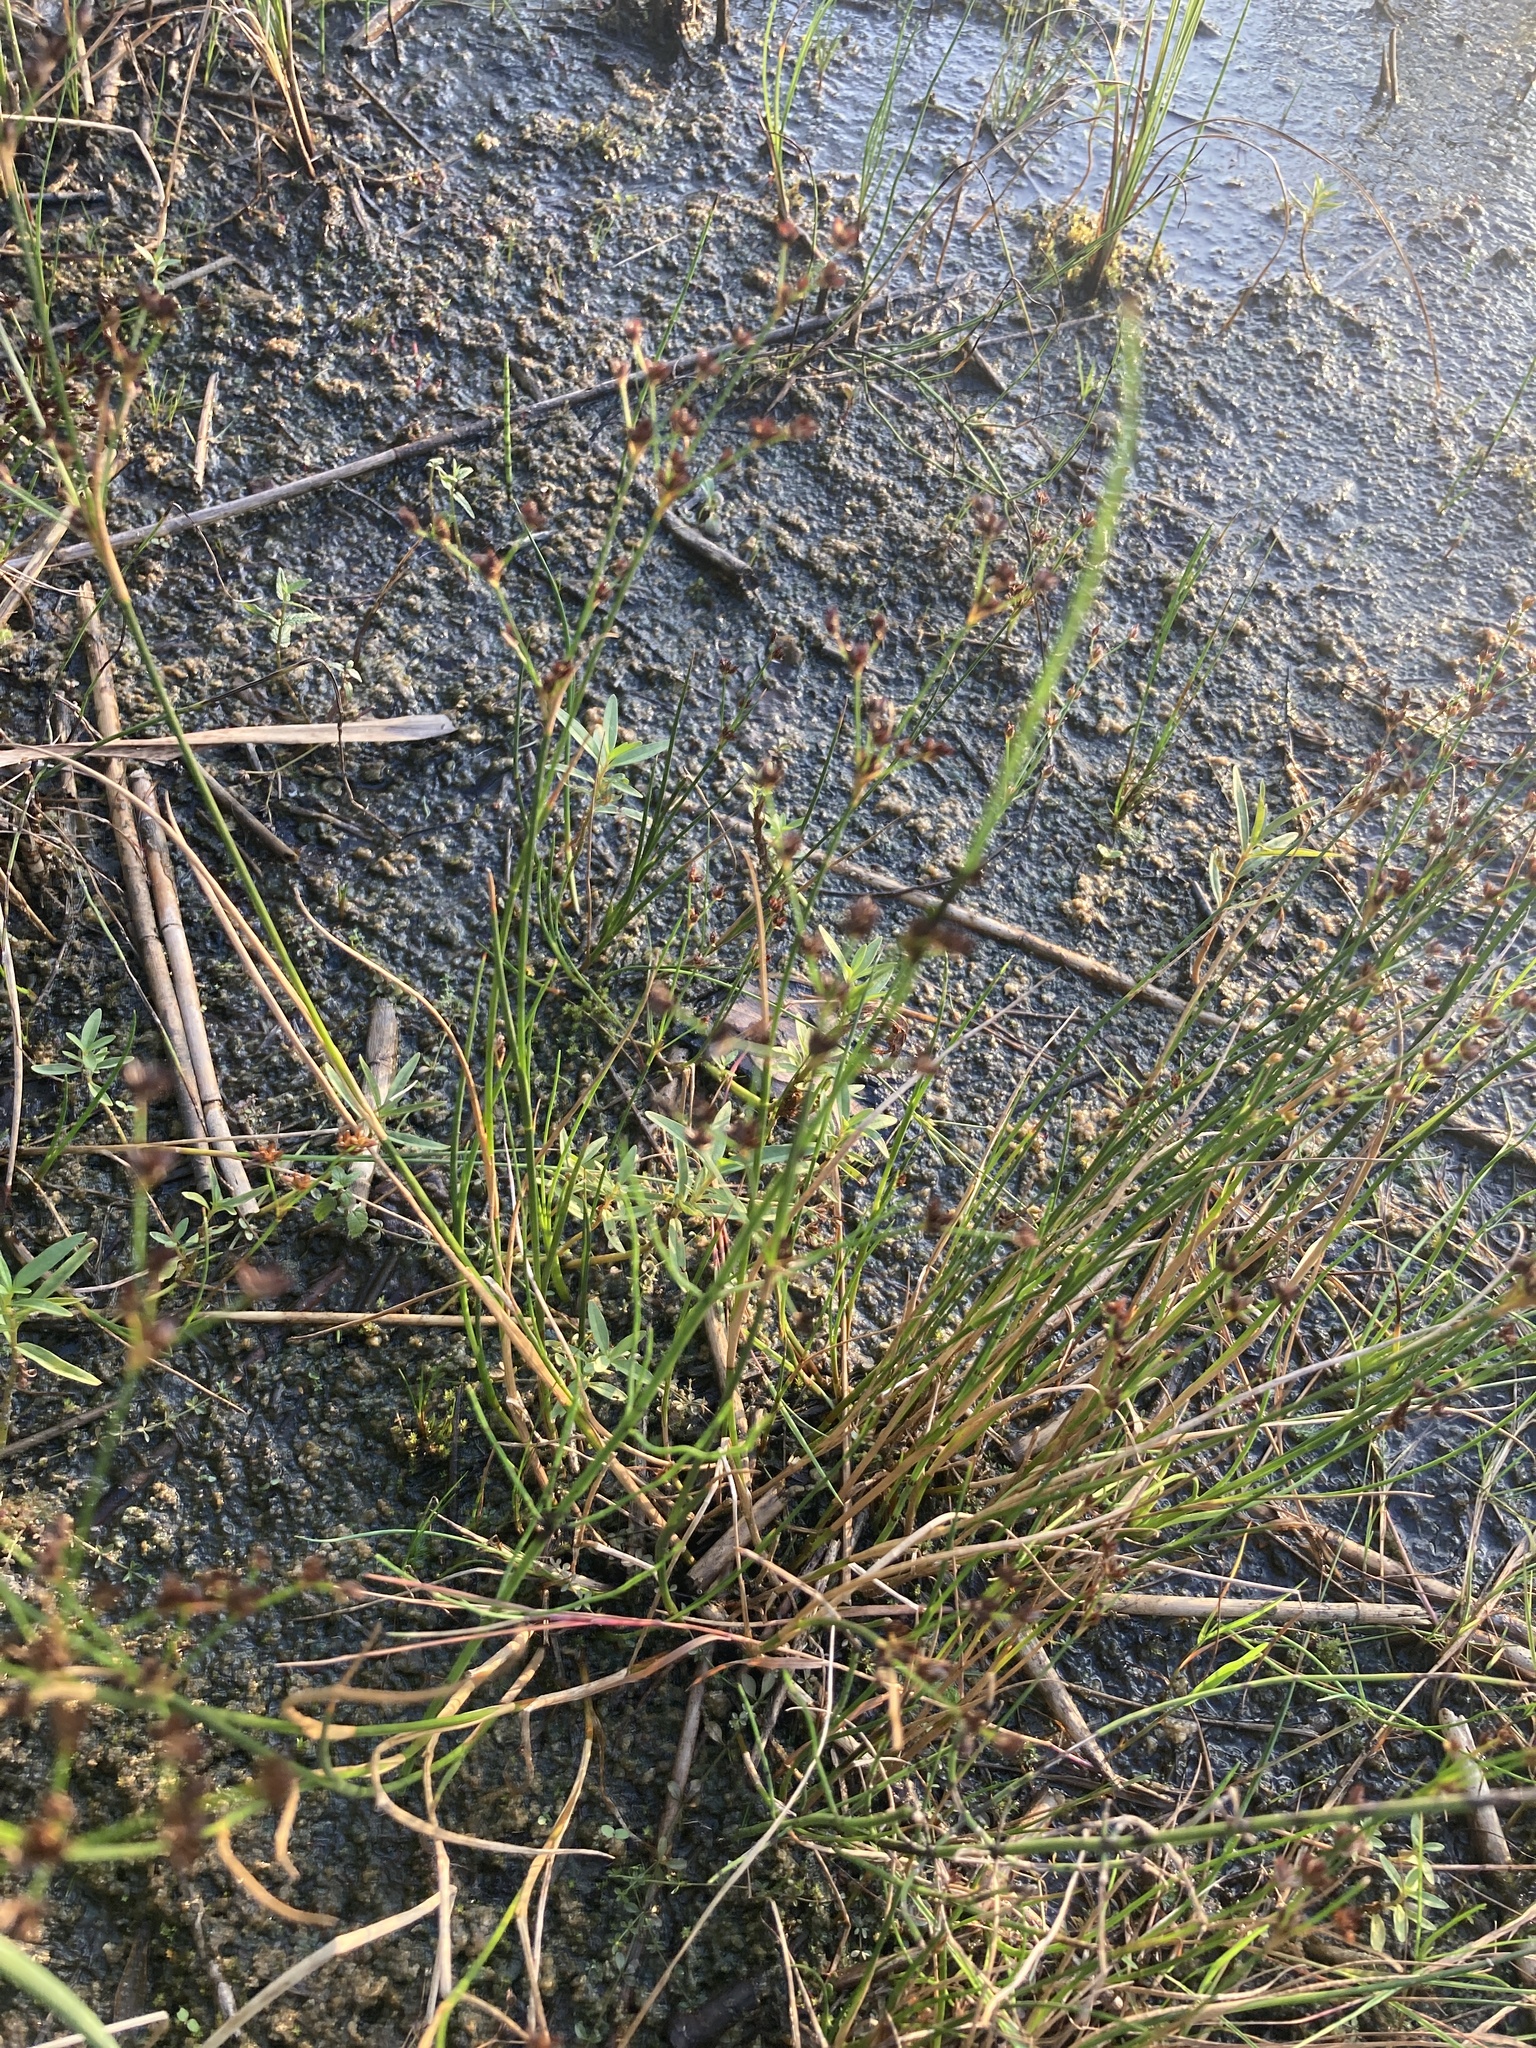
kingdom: Plantae
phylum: Tracheophyta
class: Liliopsida
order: Poales
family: Juncaceae
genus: Juncus
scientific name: Juncus articulatus
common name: Jointed rush
